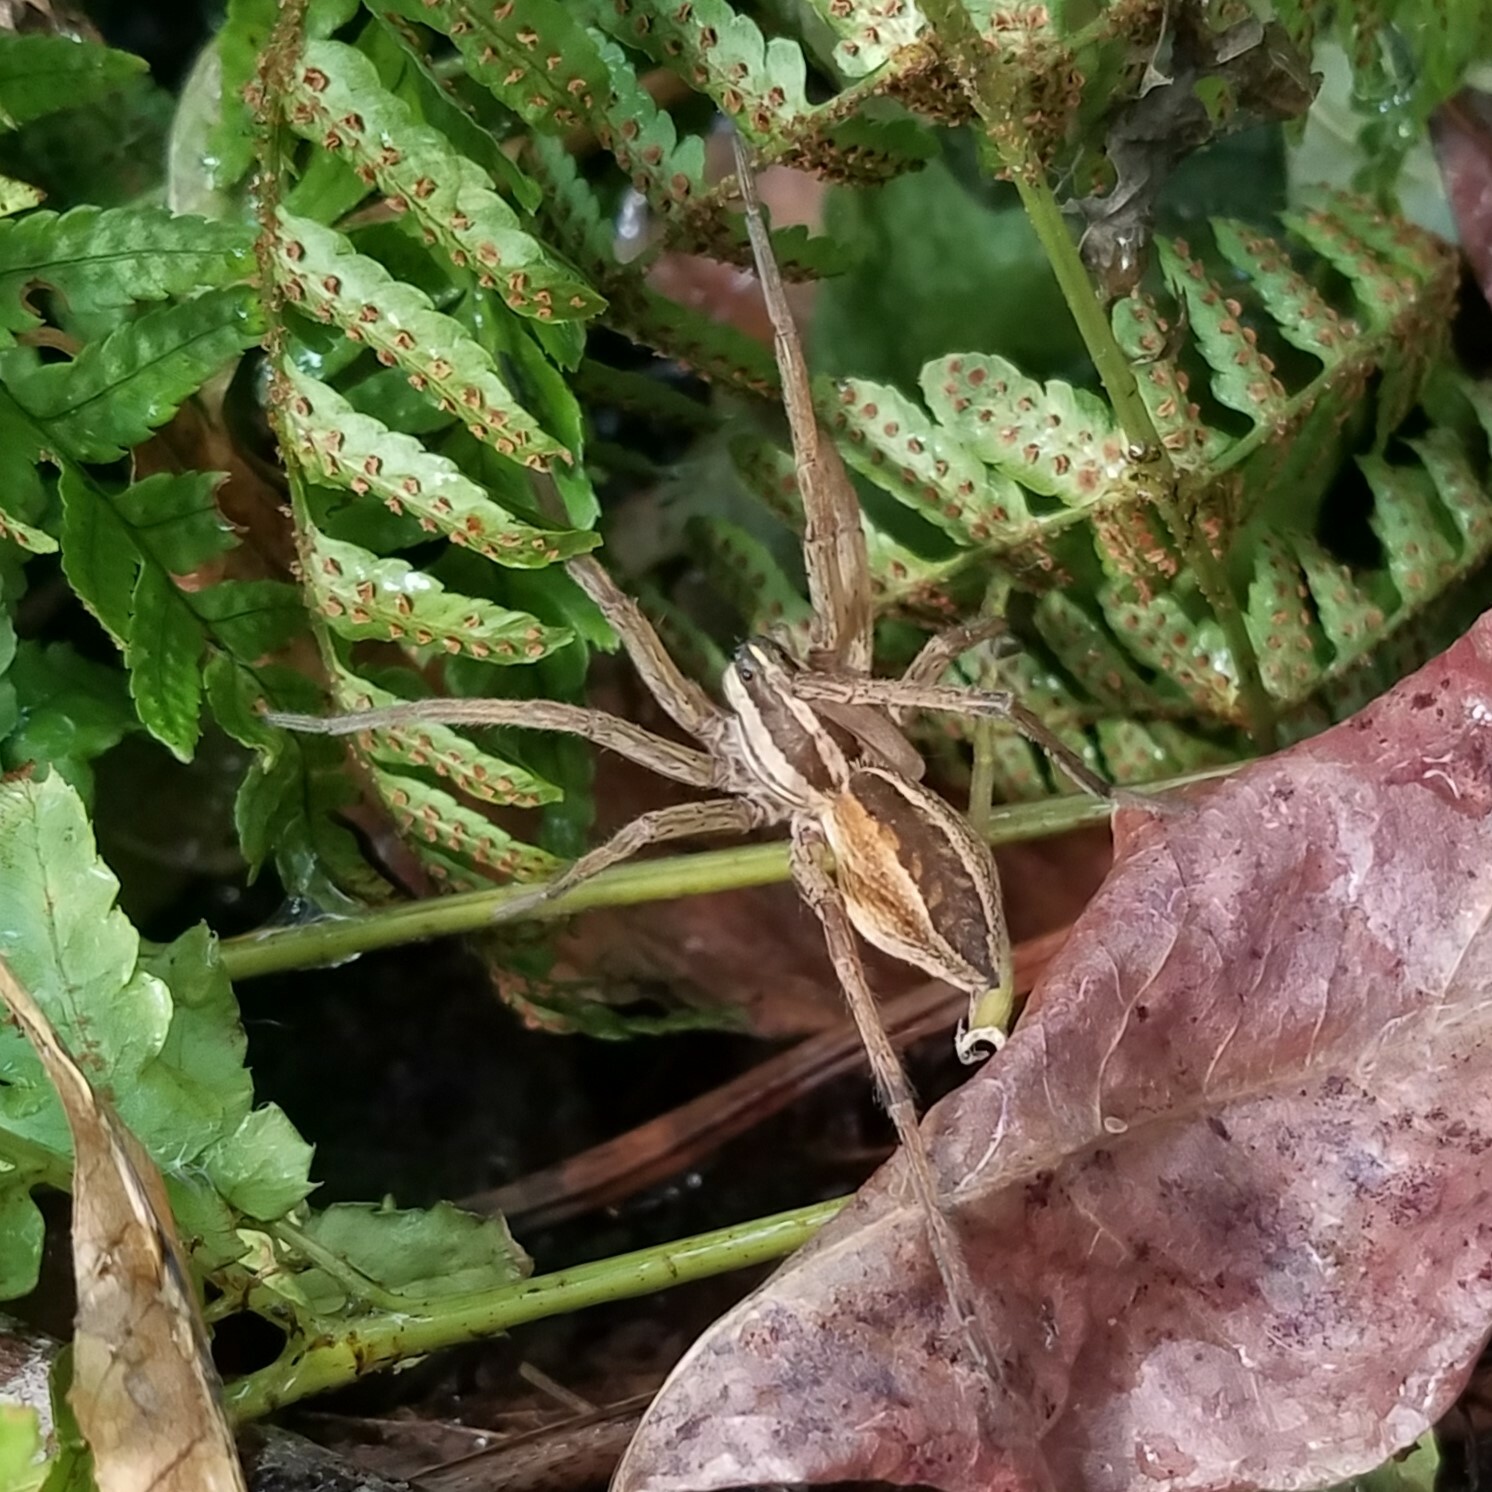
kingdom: Animalia
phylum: Arthropoda
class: Arachnida
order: Araneae
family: Lycosidae
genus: Rabidosa
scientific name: Rabidosa rabida
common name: Rabid wolf spider
